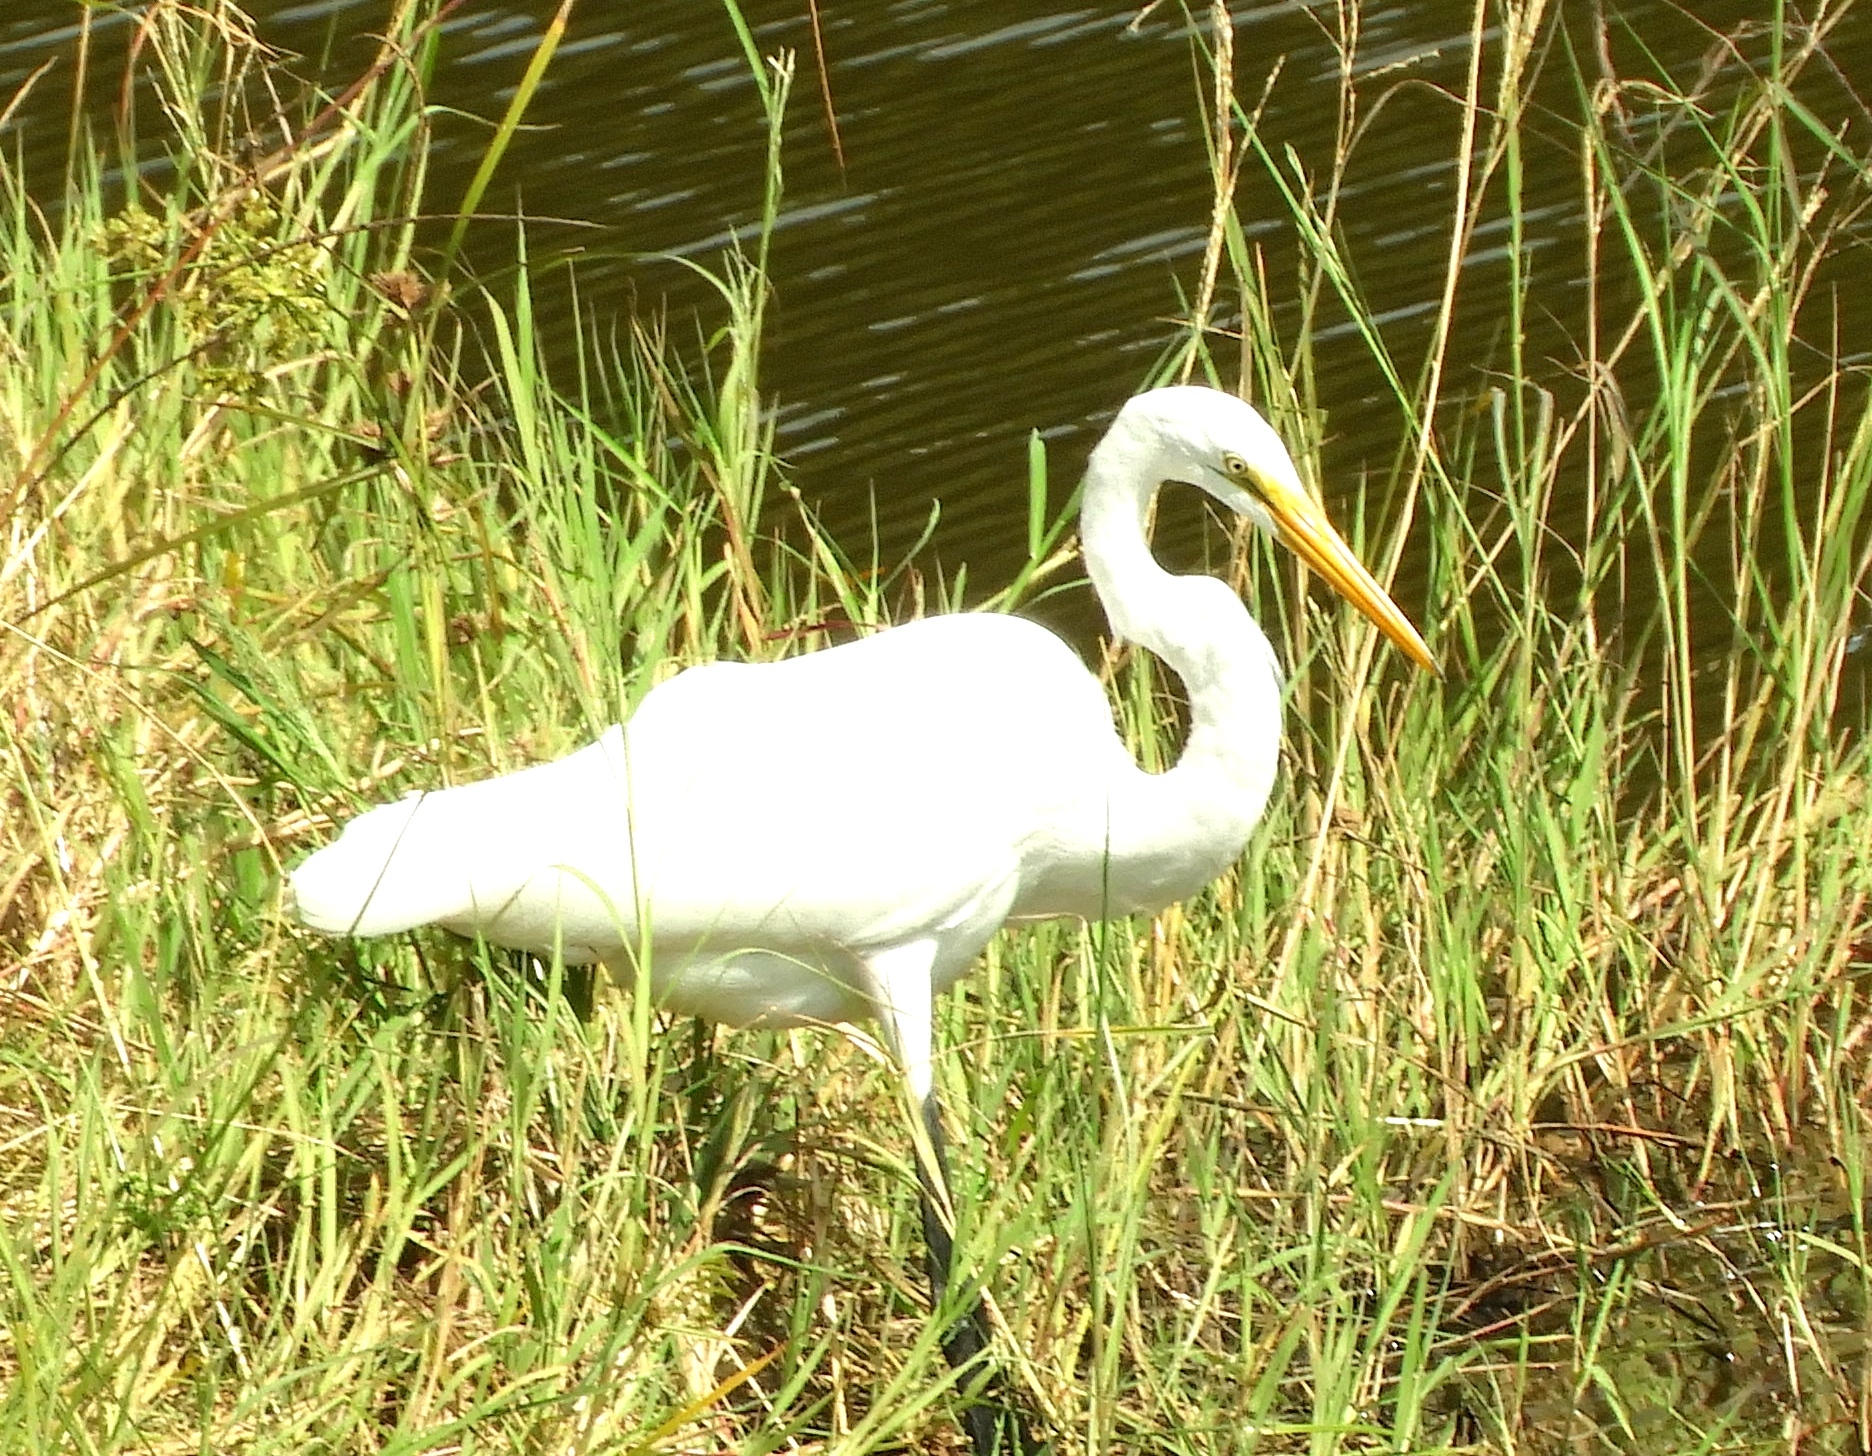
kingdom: Animalia
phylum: Chordata
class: Aves
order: Pelecaniformes
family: Ardeidae
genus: Ardea
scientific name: Ardea alba
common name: Great egret
